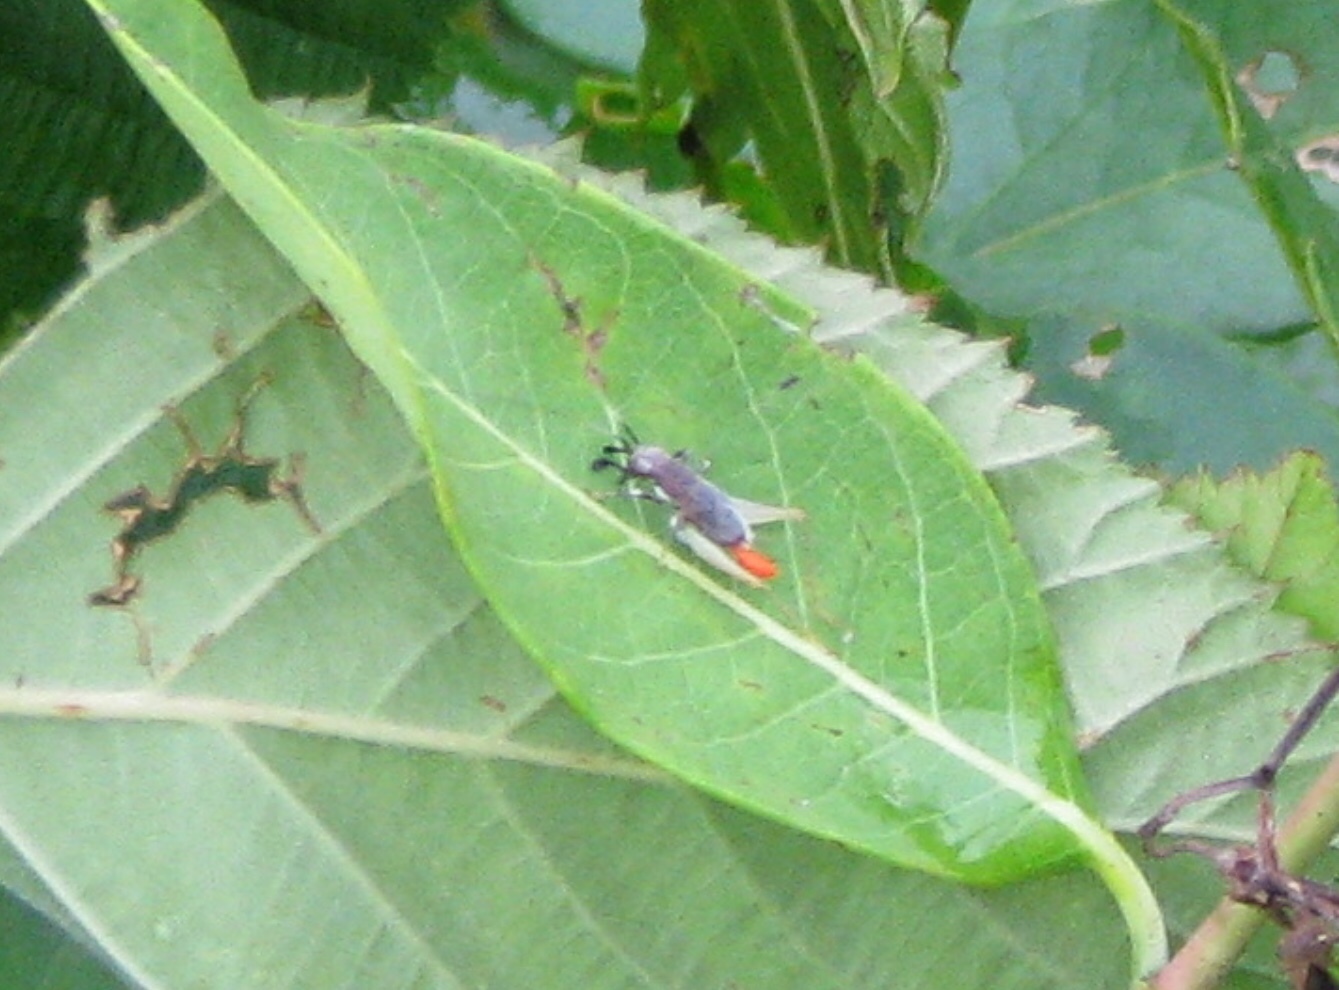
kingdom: Animalia
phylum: Arthropoda
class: Insecta
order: Orthoptera
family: Trigonidiidae
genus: Phyllopalpus
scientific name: Phyllopalpus pulchellus
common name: Handsome trig
